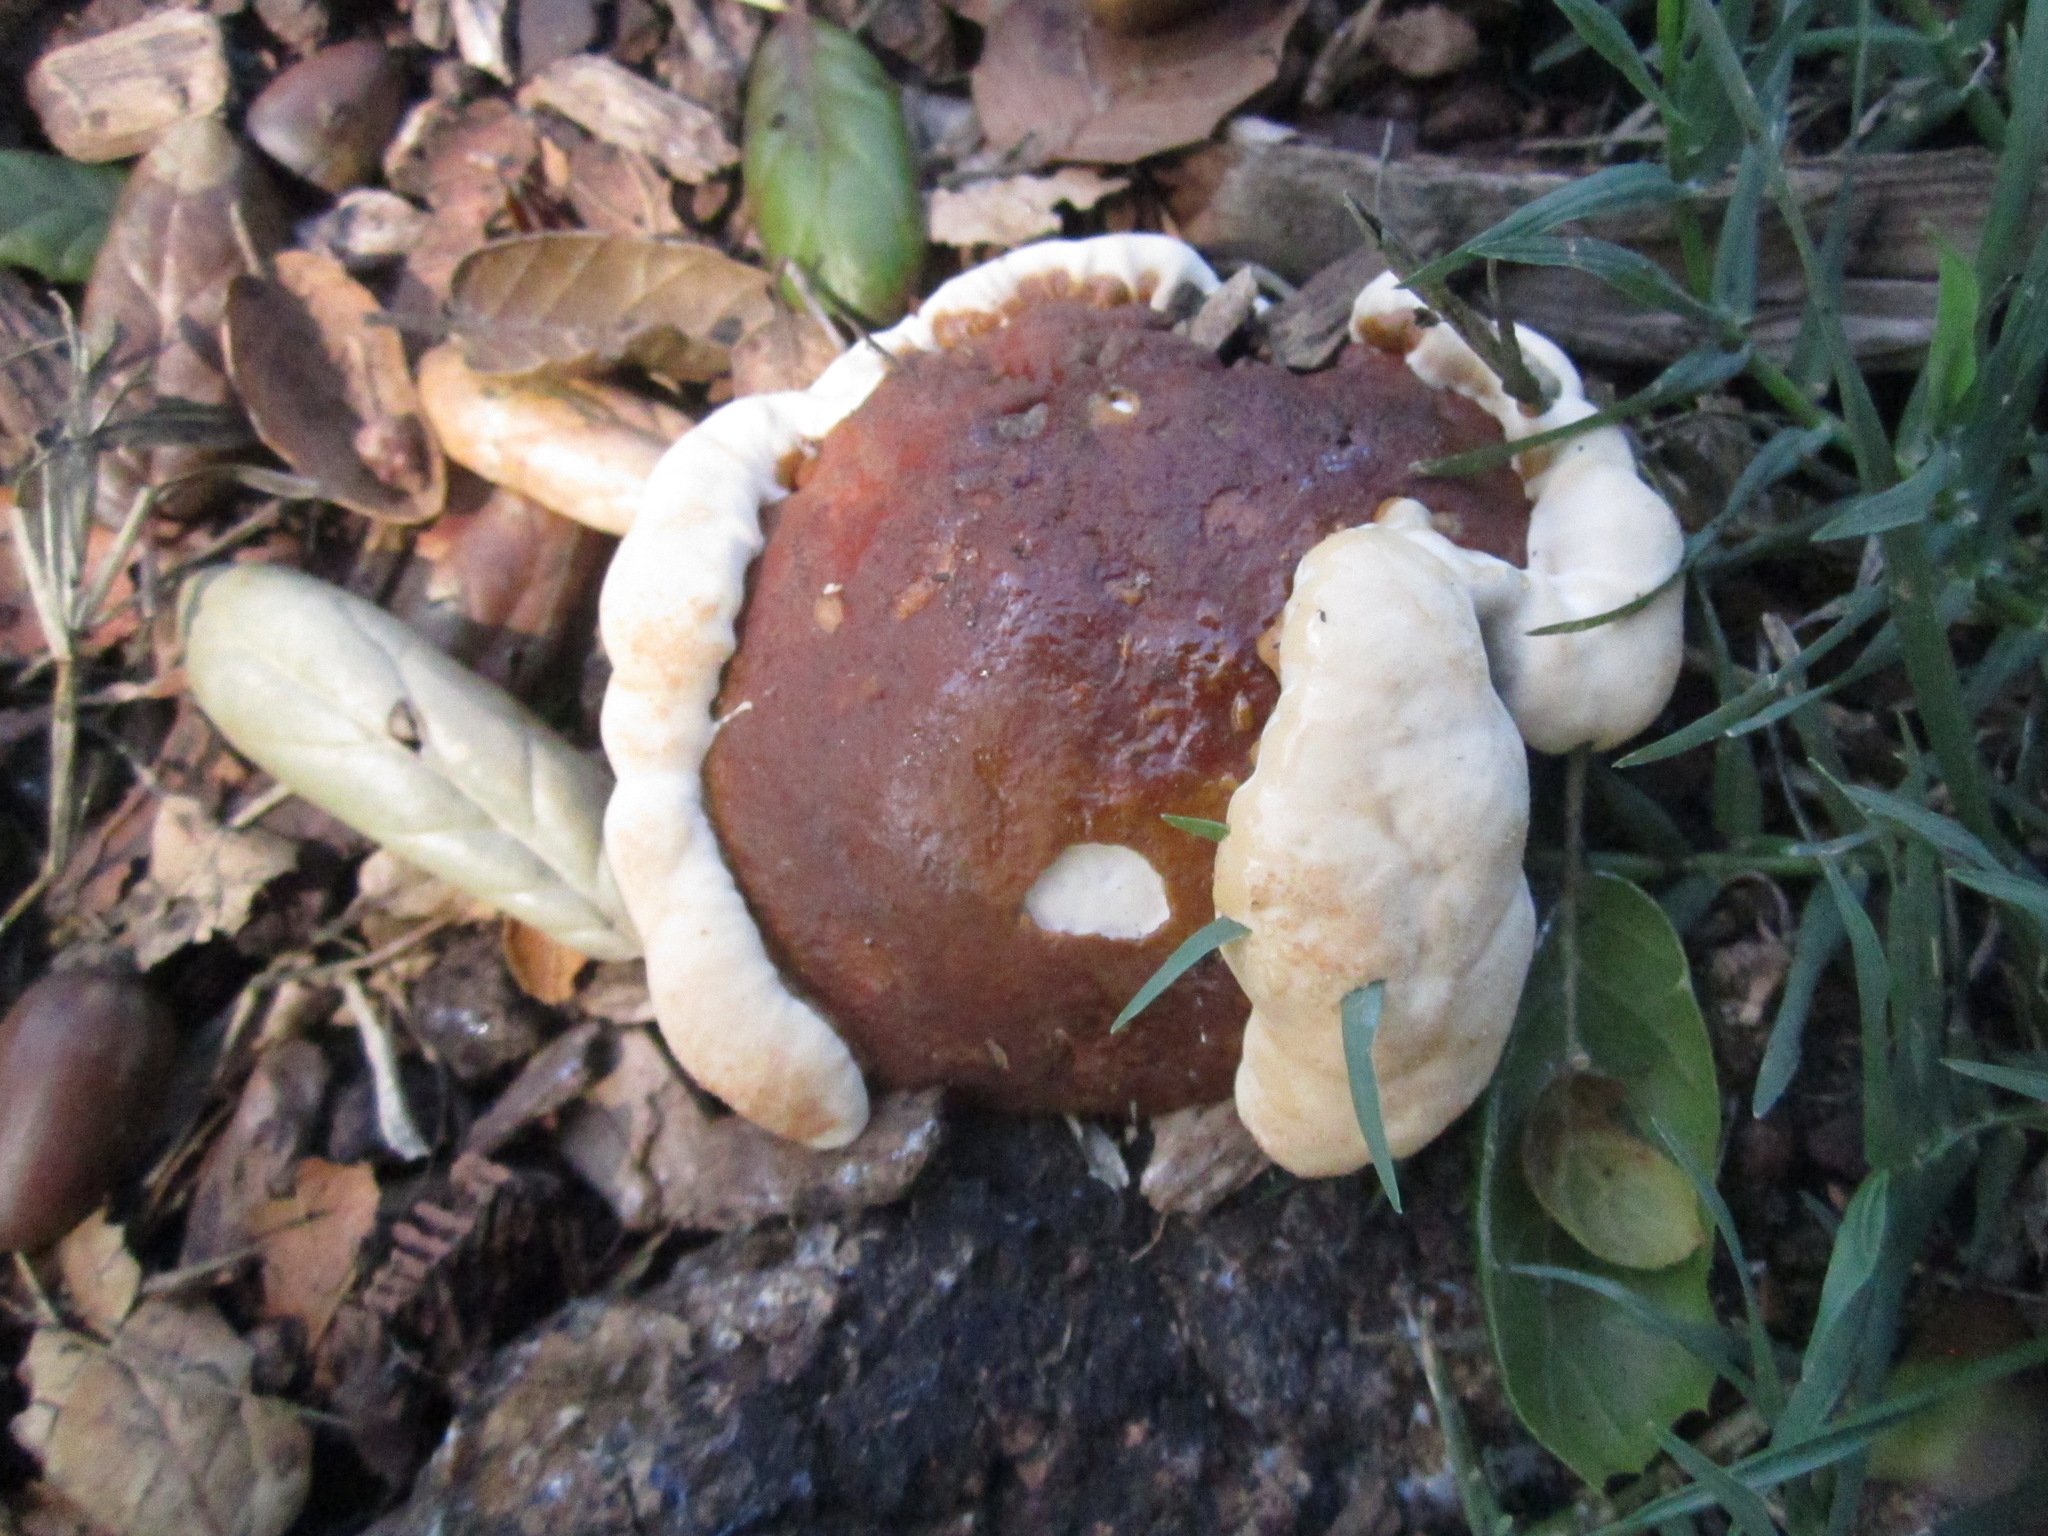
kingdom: Fungi
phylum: Basidiomycota
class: Agaricomycetes
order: Polyporales
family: Polyporaceae
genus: Ganoderma
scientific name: Ganoderma polychromum
